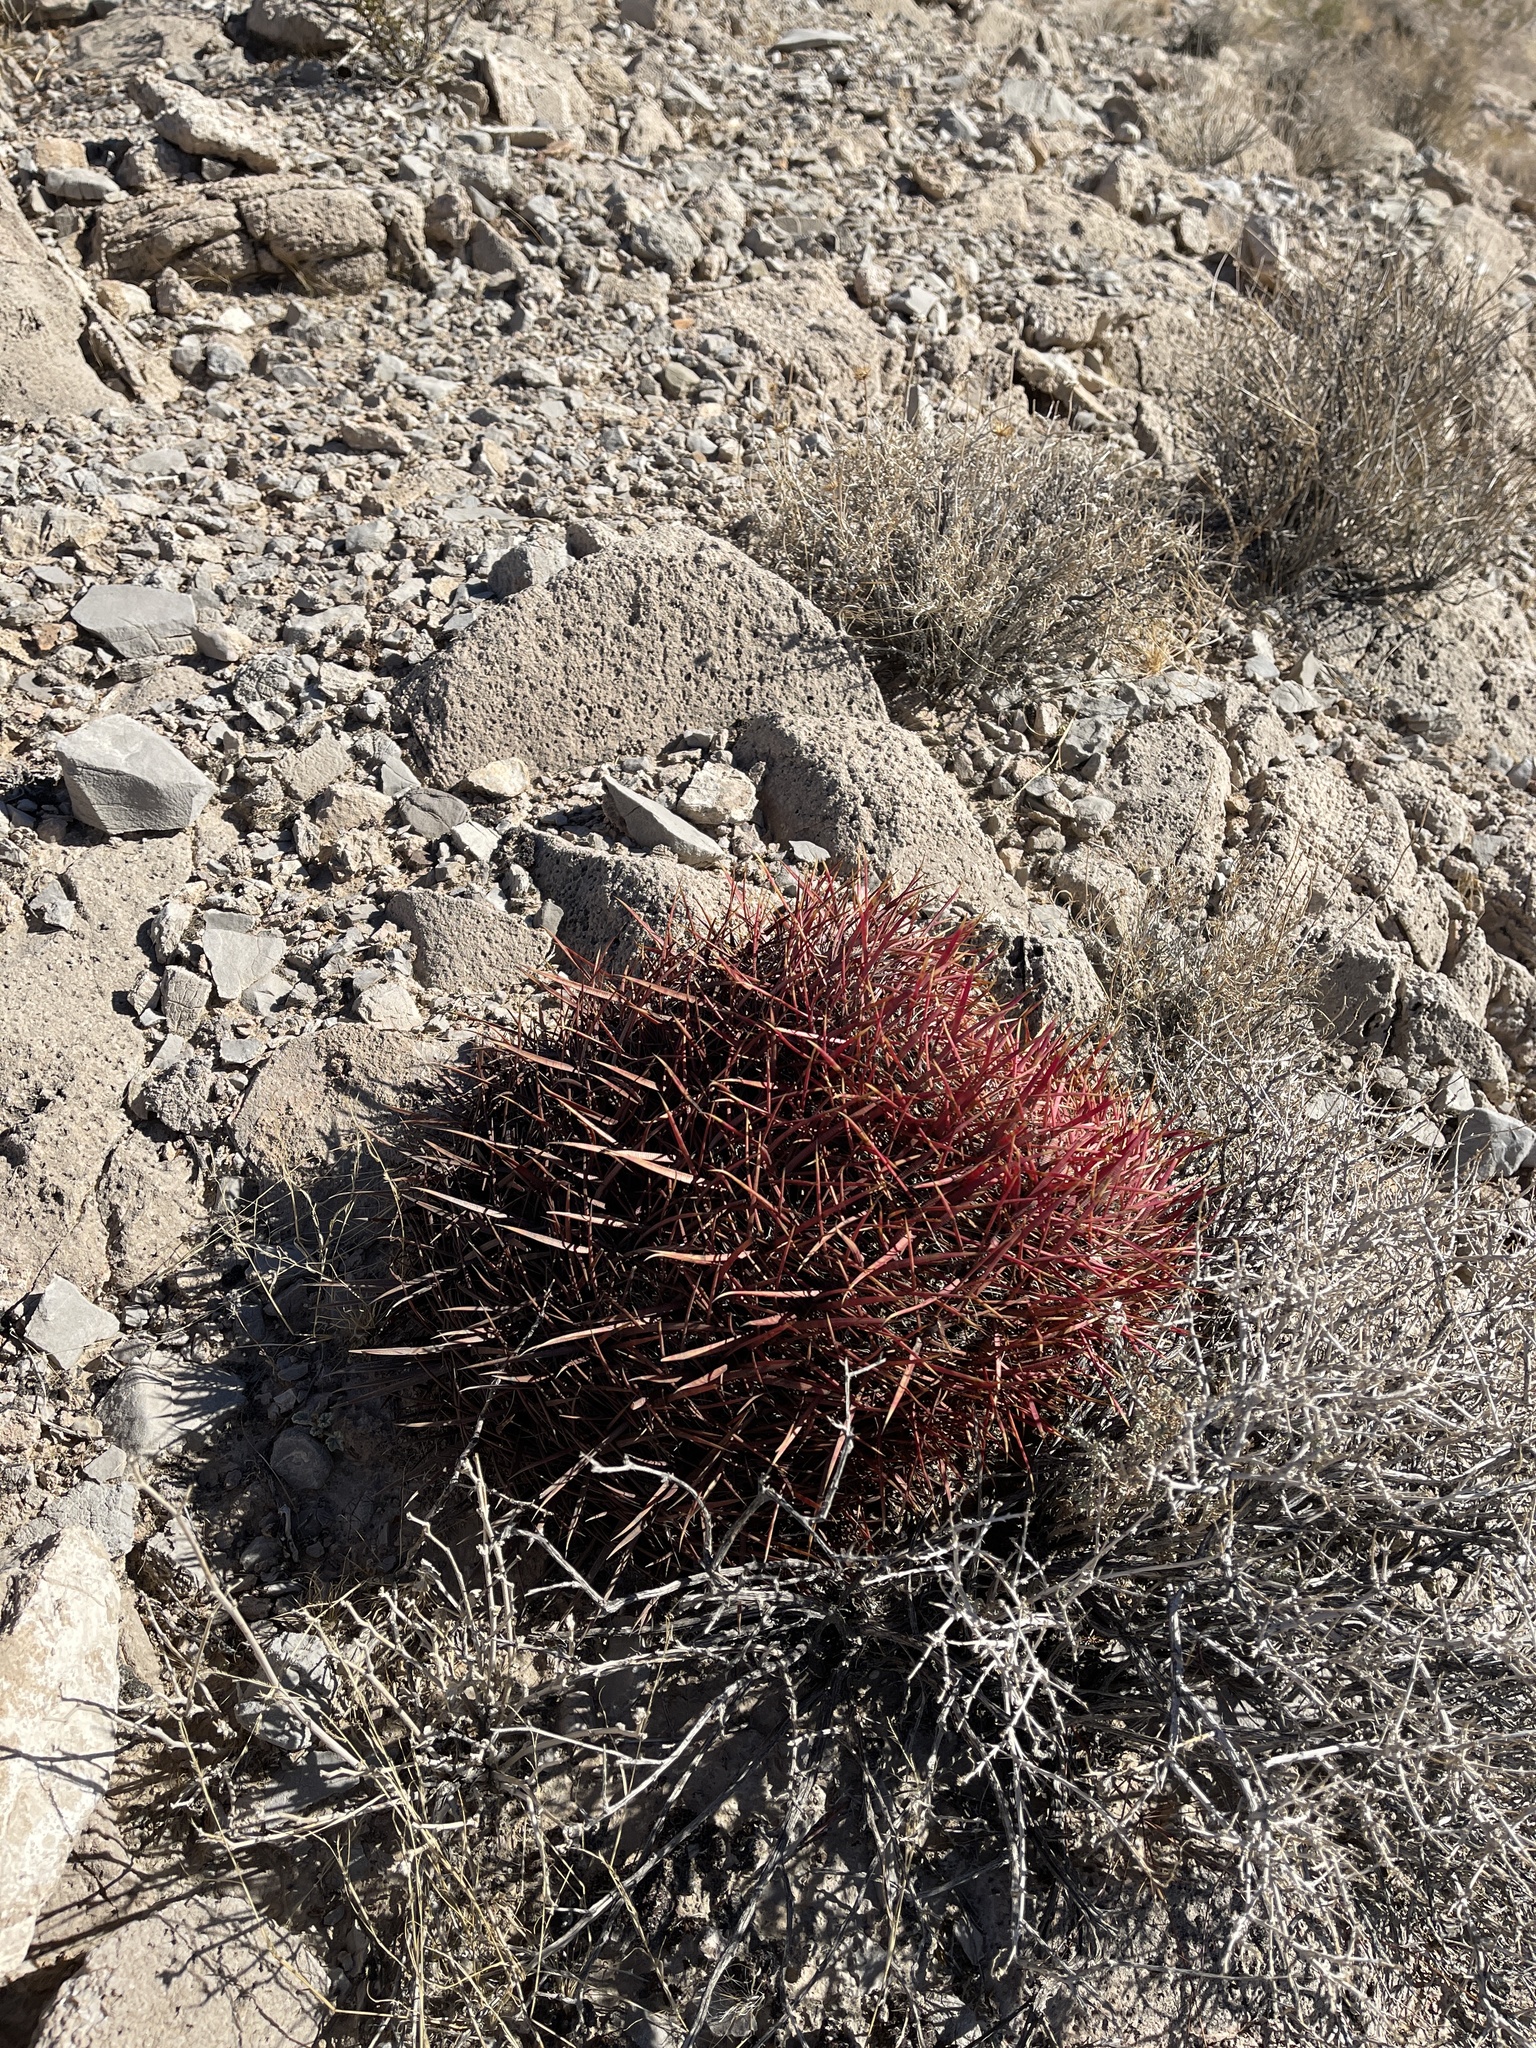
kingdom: Plantae
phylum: Tracheophyta
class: Magnoliopsida
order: Caryophyllales
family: Cactaceae
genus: Ferocactus
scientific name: Ferocactus cylindraceus
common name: California barrel cactus
